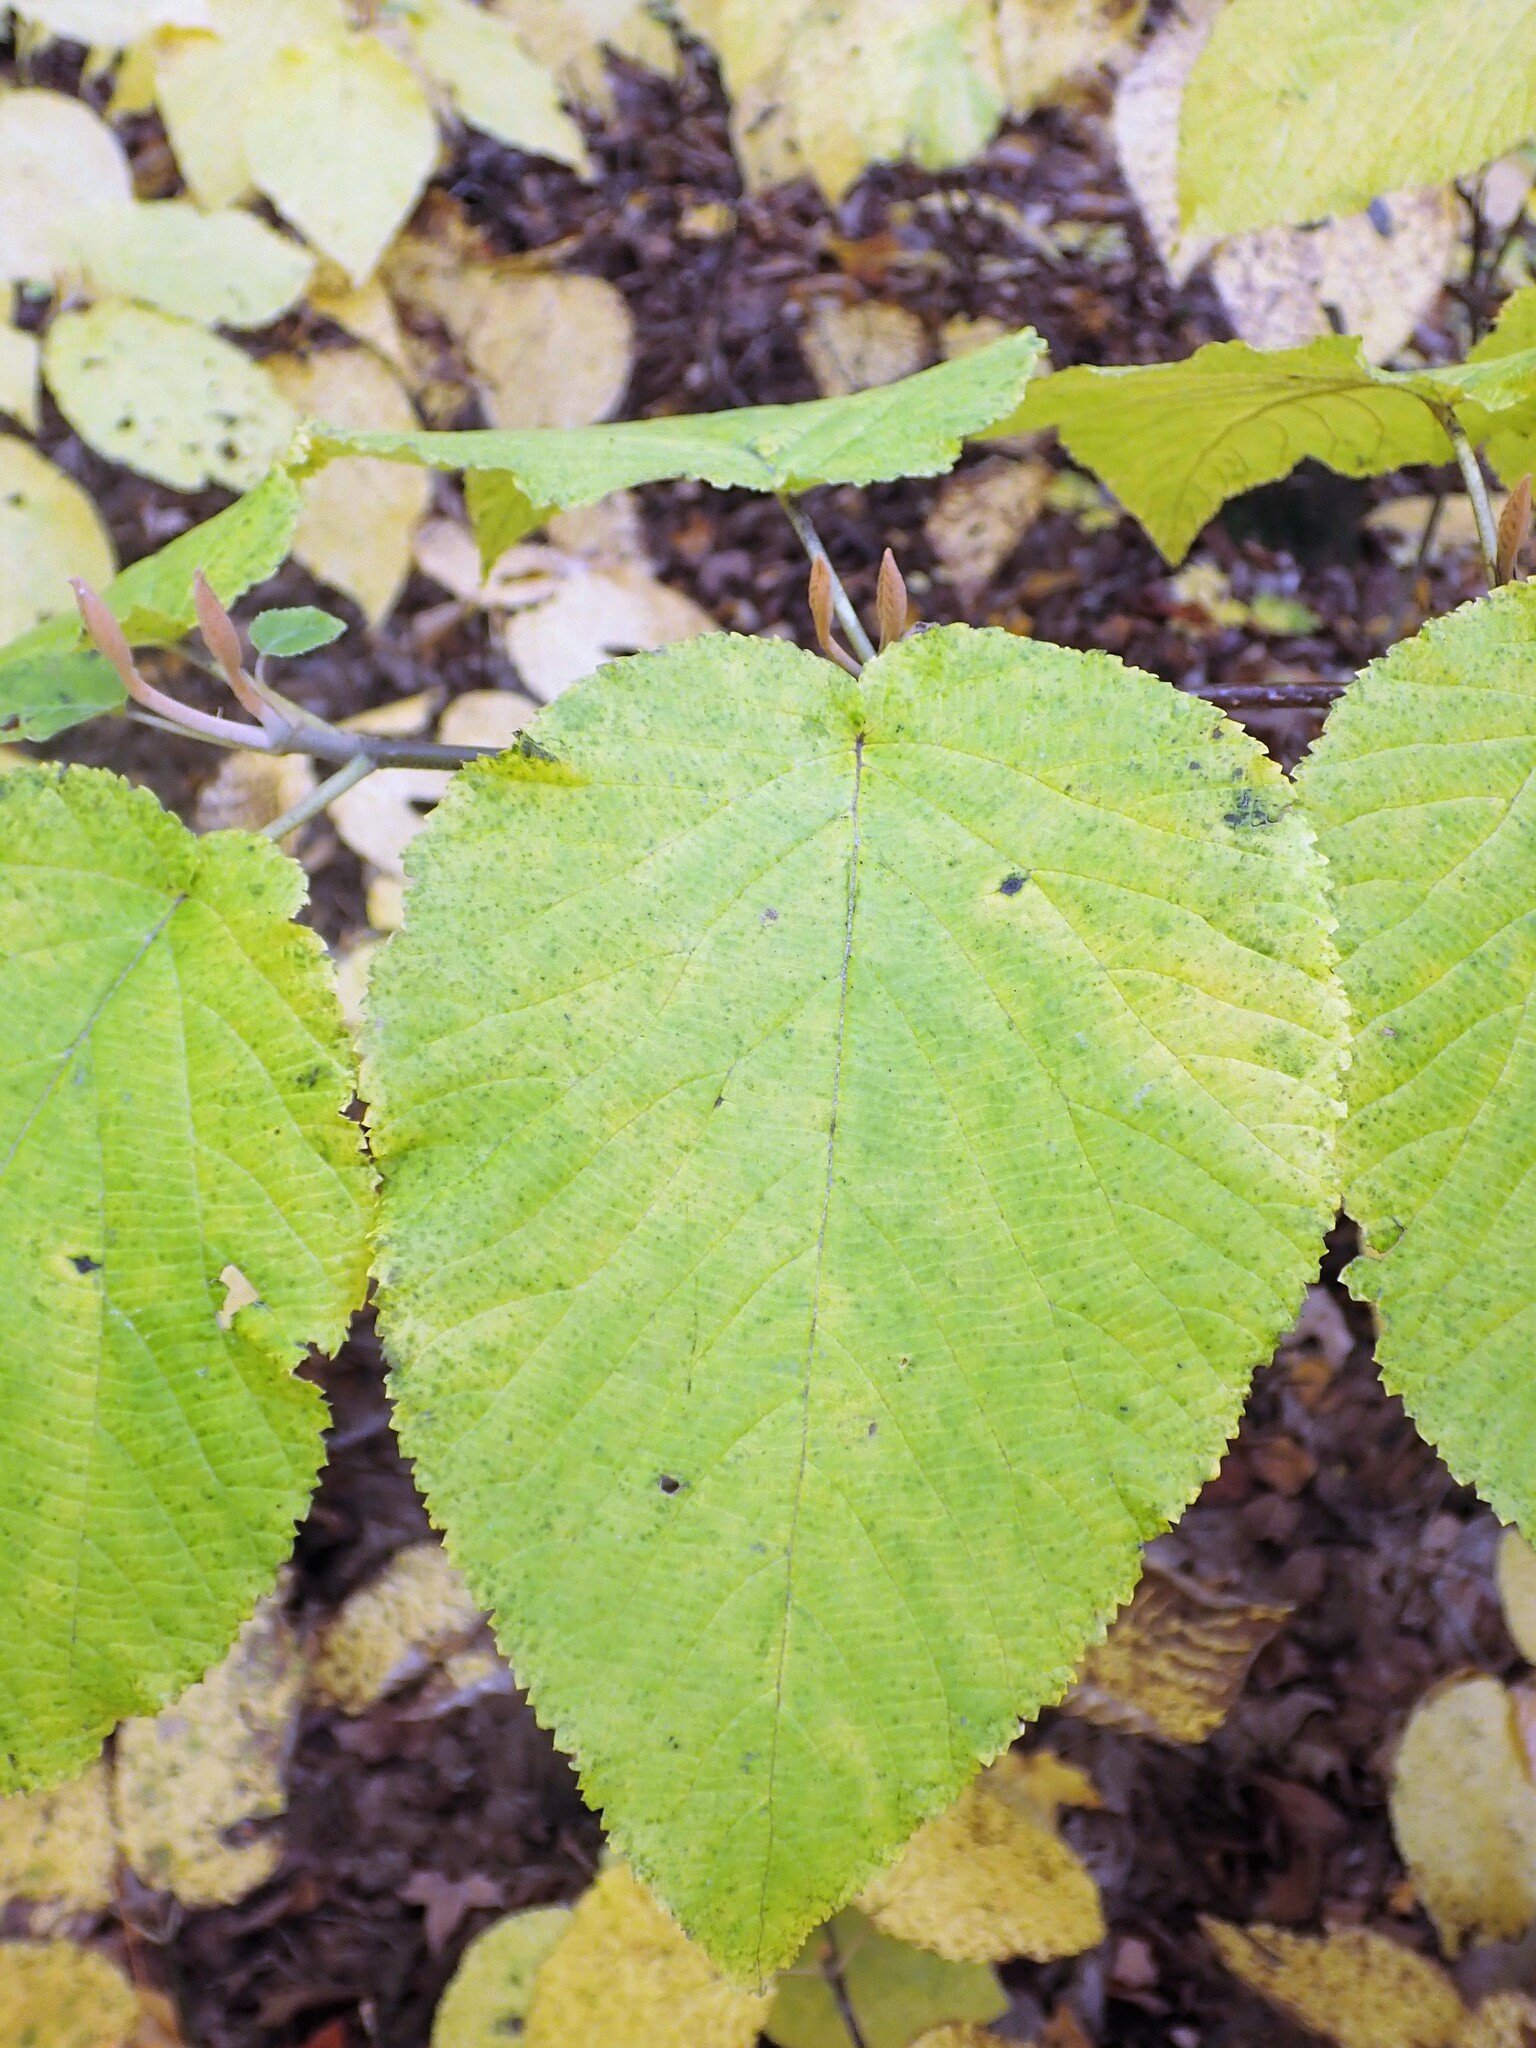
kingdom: Plantae
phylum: Tracheophyta
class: Magnoliopsida
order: Dipsacales
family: Viburnaceae
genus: Viburnum
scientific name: Viburnum lantanoides
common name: Hobblebush
